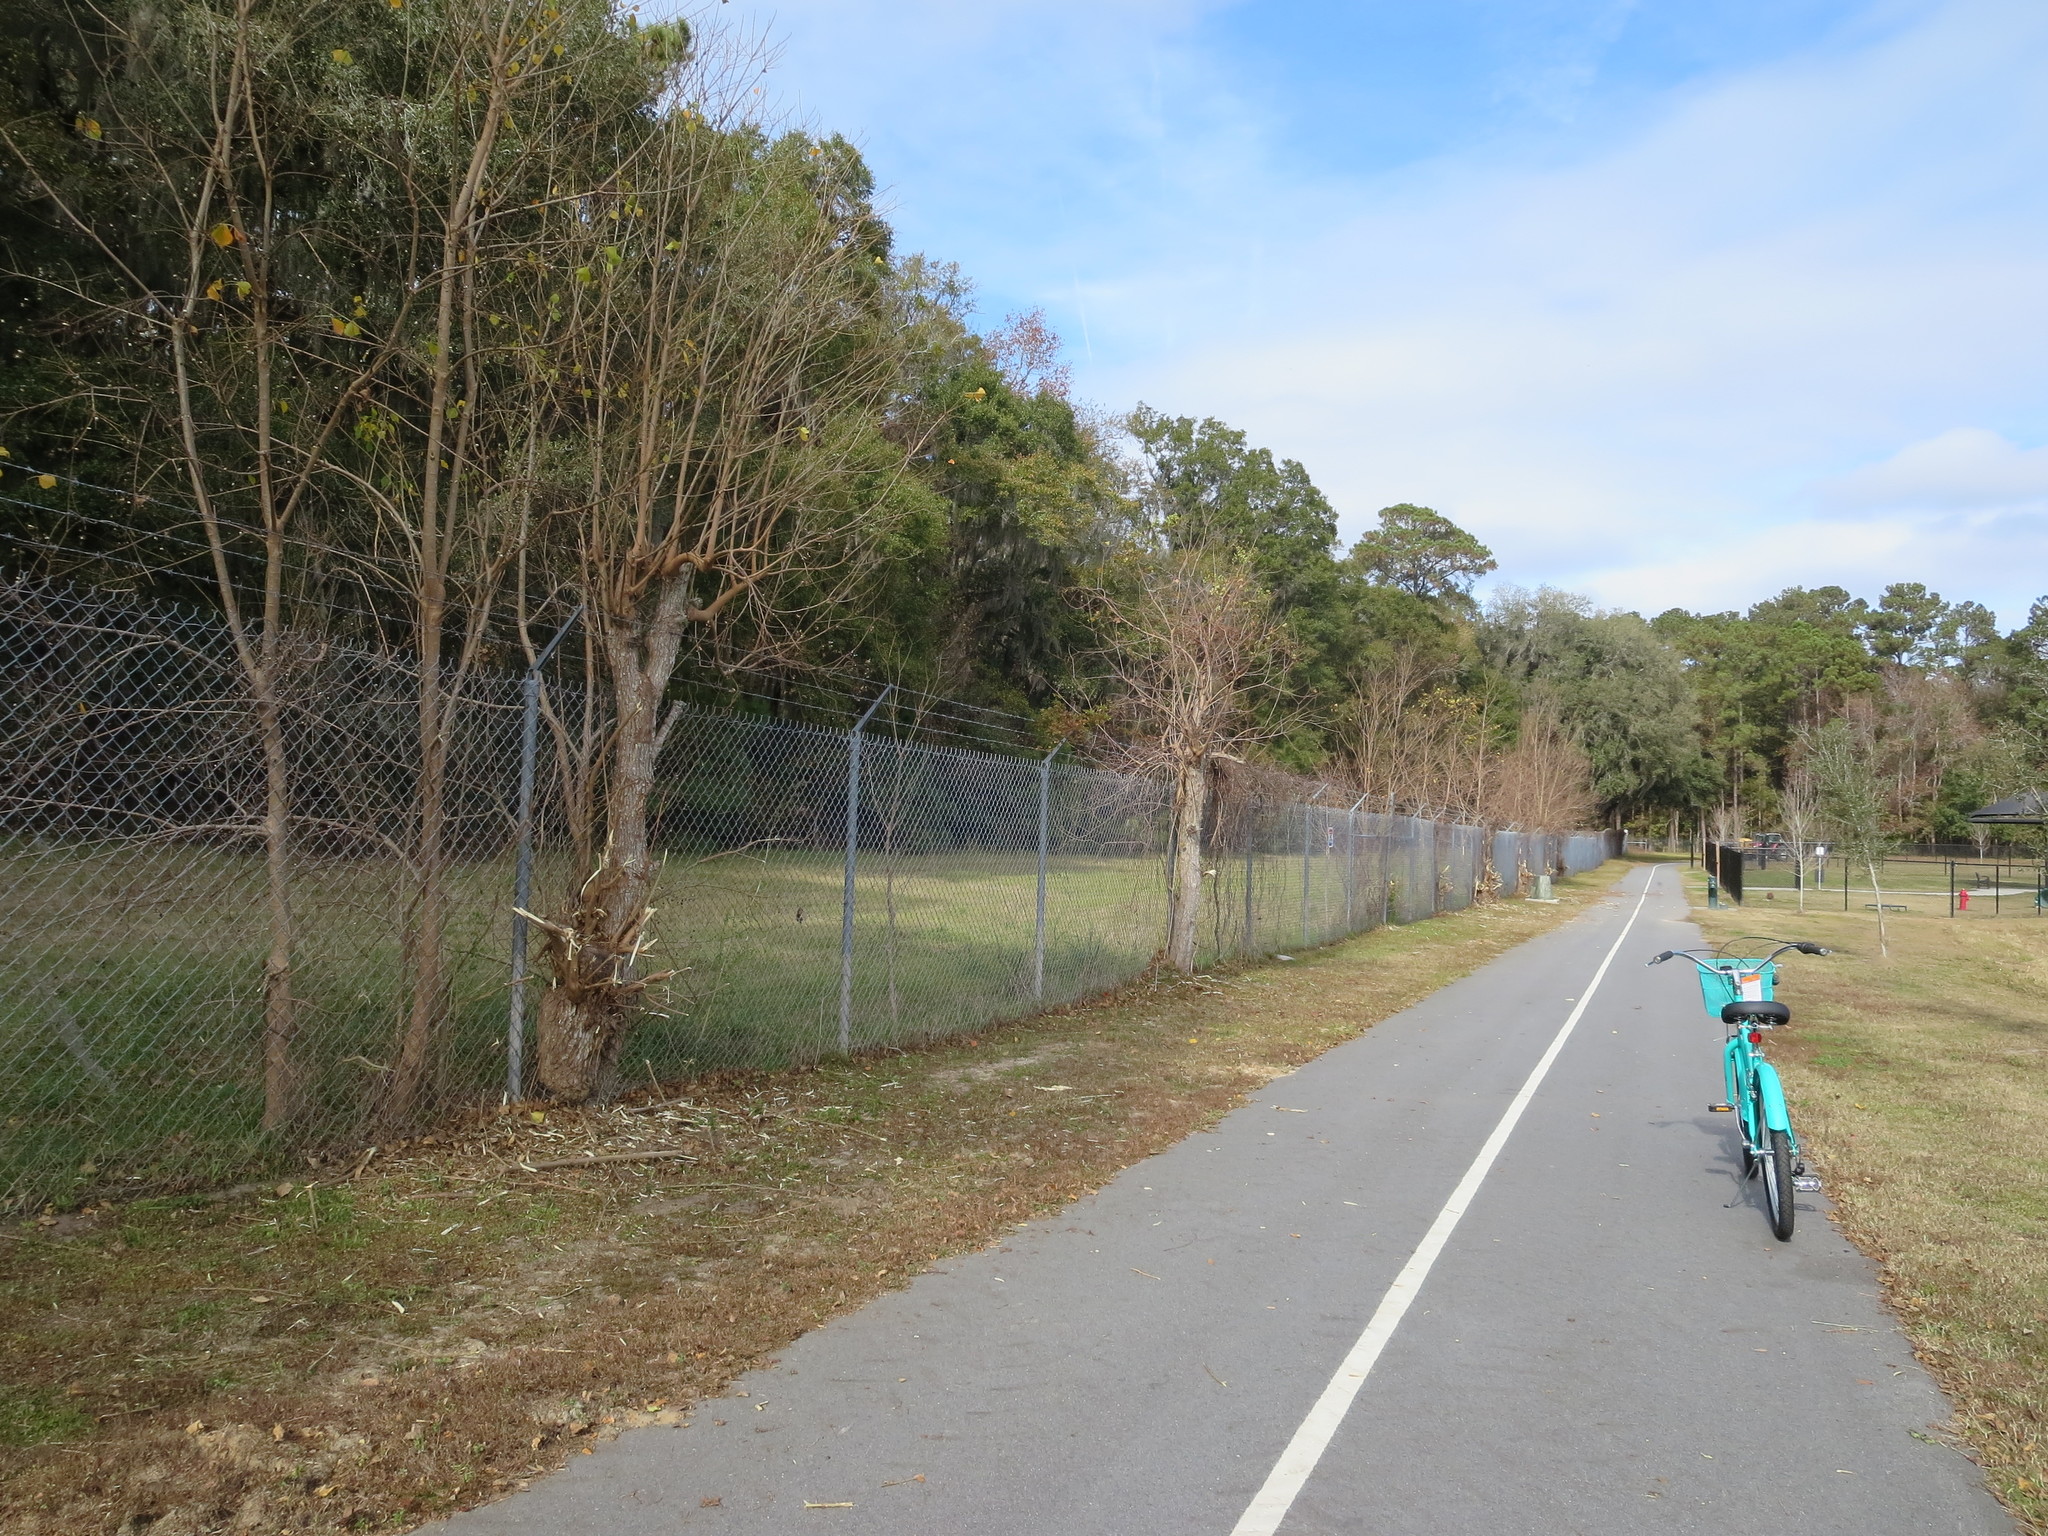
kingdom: Plantae
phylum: Tracheophyta
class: Magnoliopsida
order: Malpighiales
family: Euphorbiaceae
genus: Triadica
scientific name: Triadica sebifera
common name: Chinese tallow
